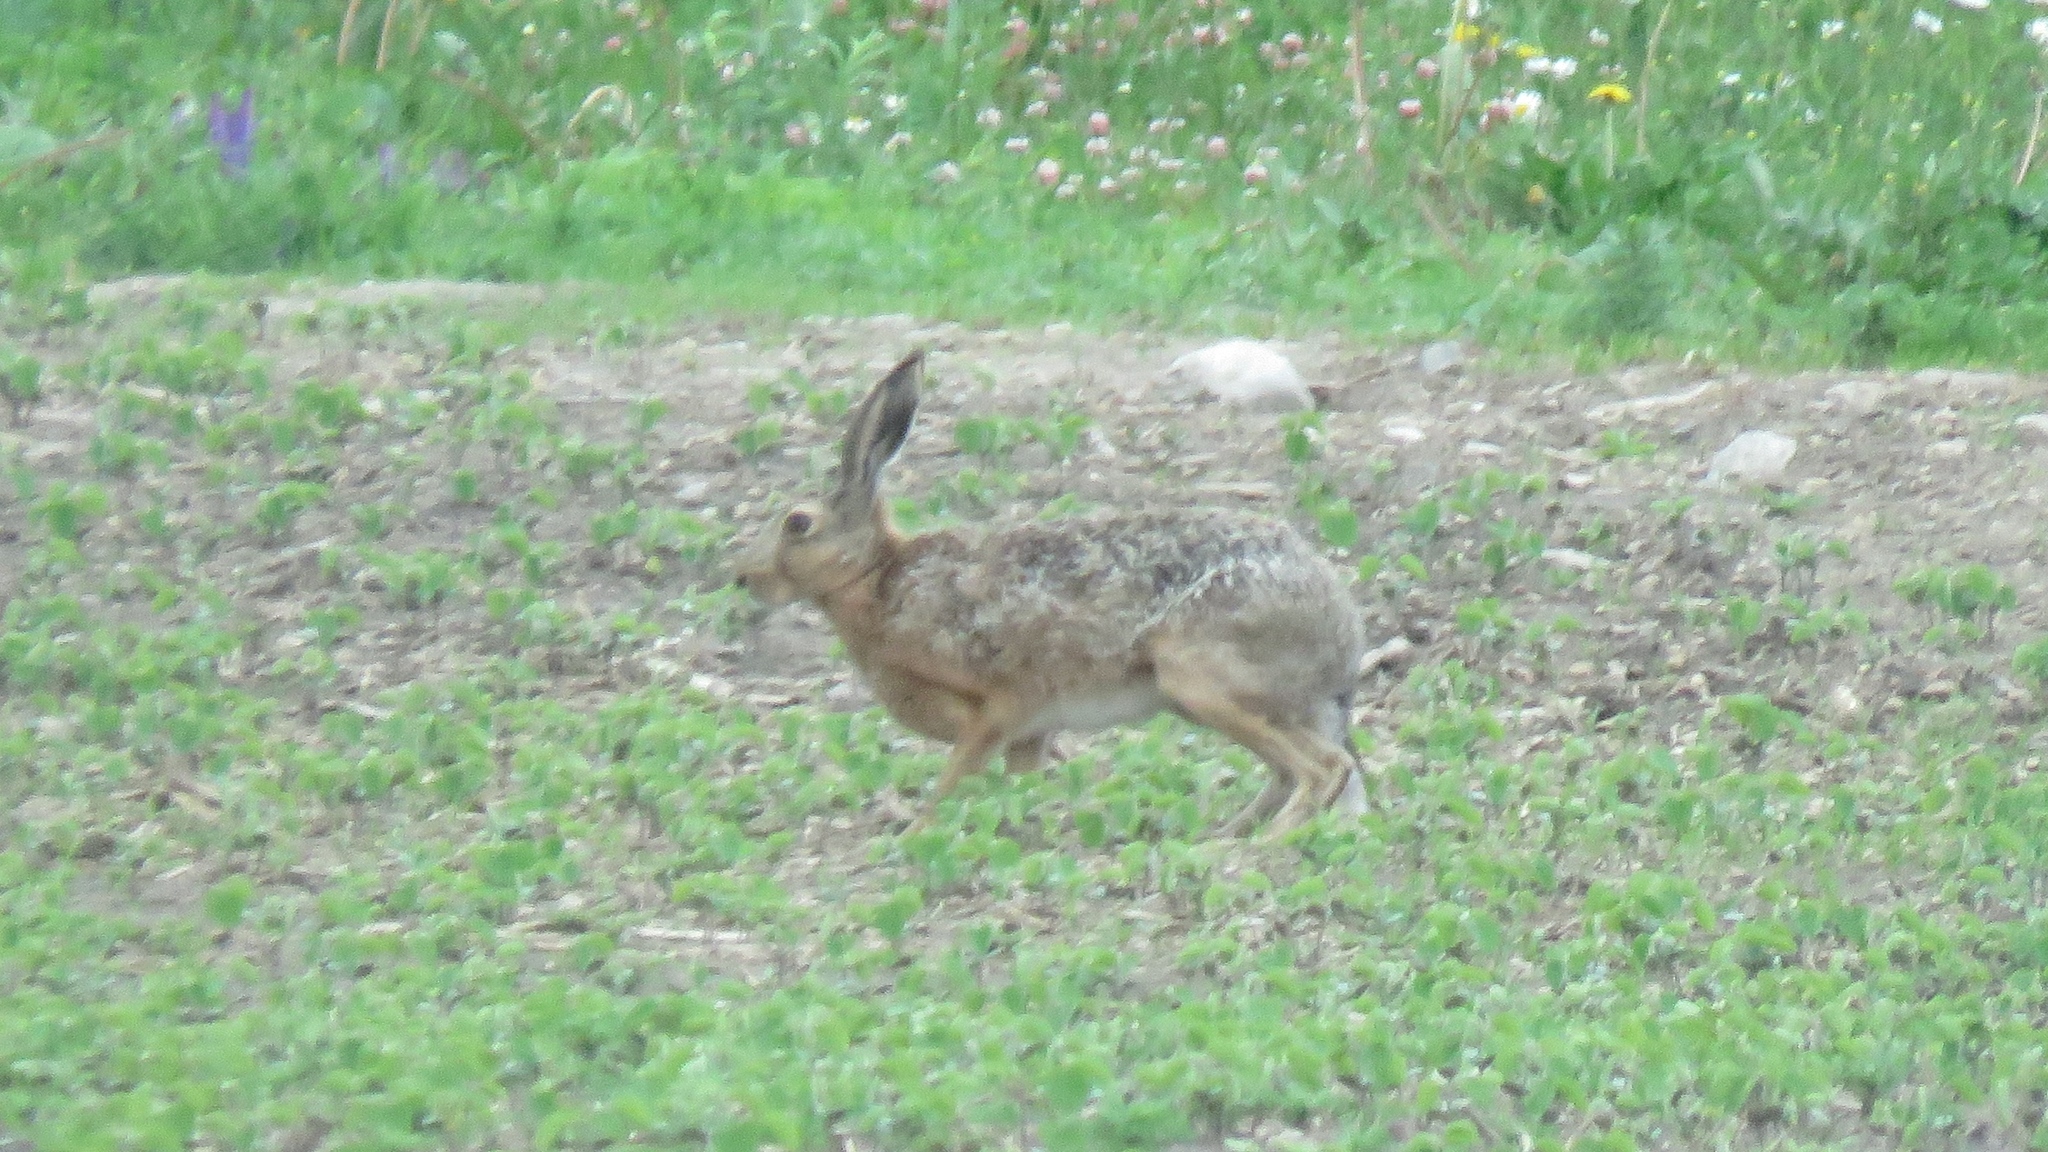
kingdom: Animalia
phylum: Chordata
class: Mammalia
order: Lagomorpha
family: Leporidae
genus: Lepus
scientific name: Lepus europaeus
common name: European hare
